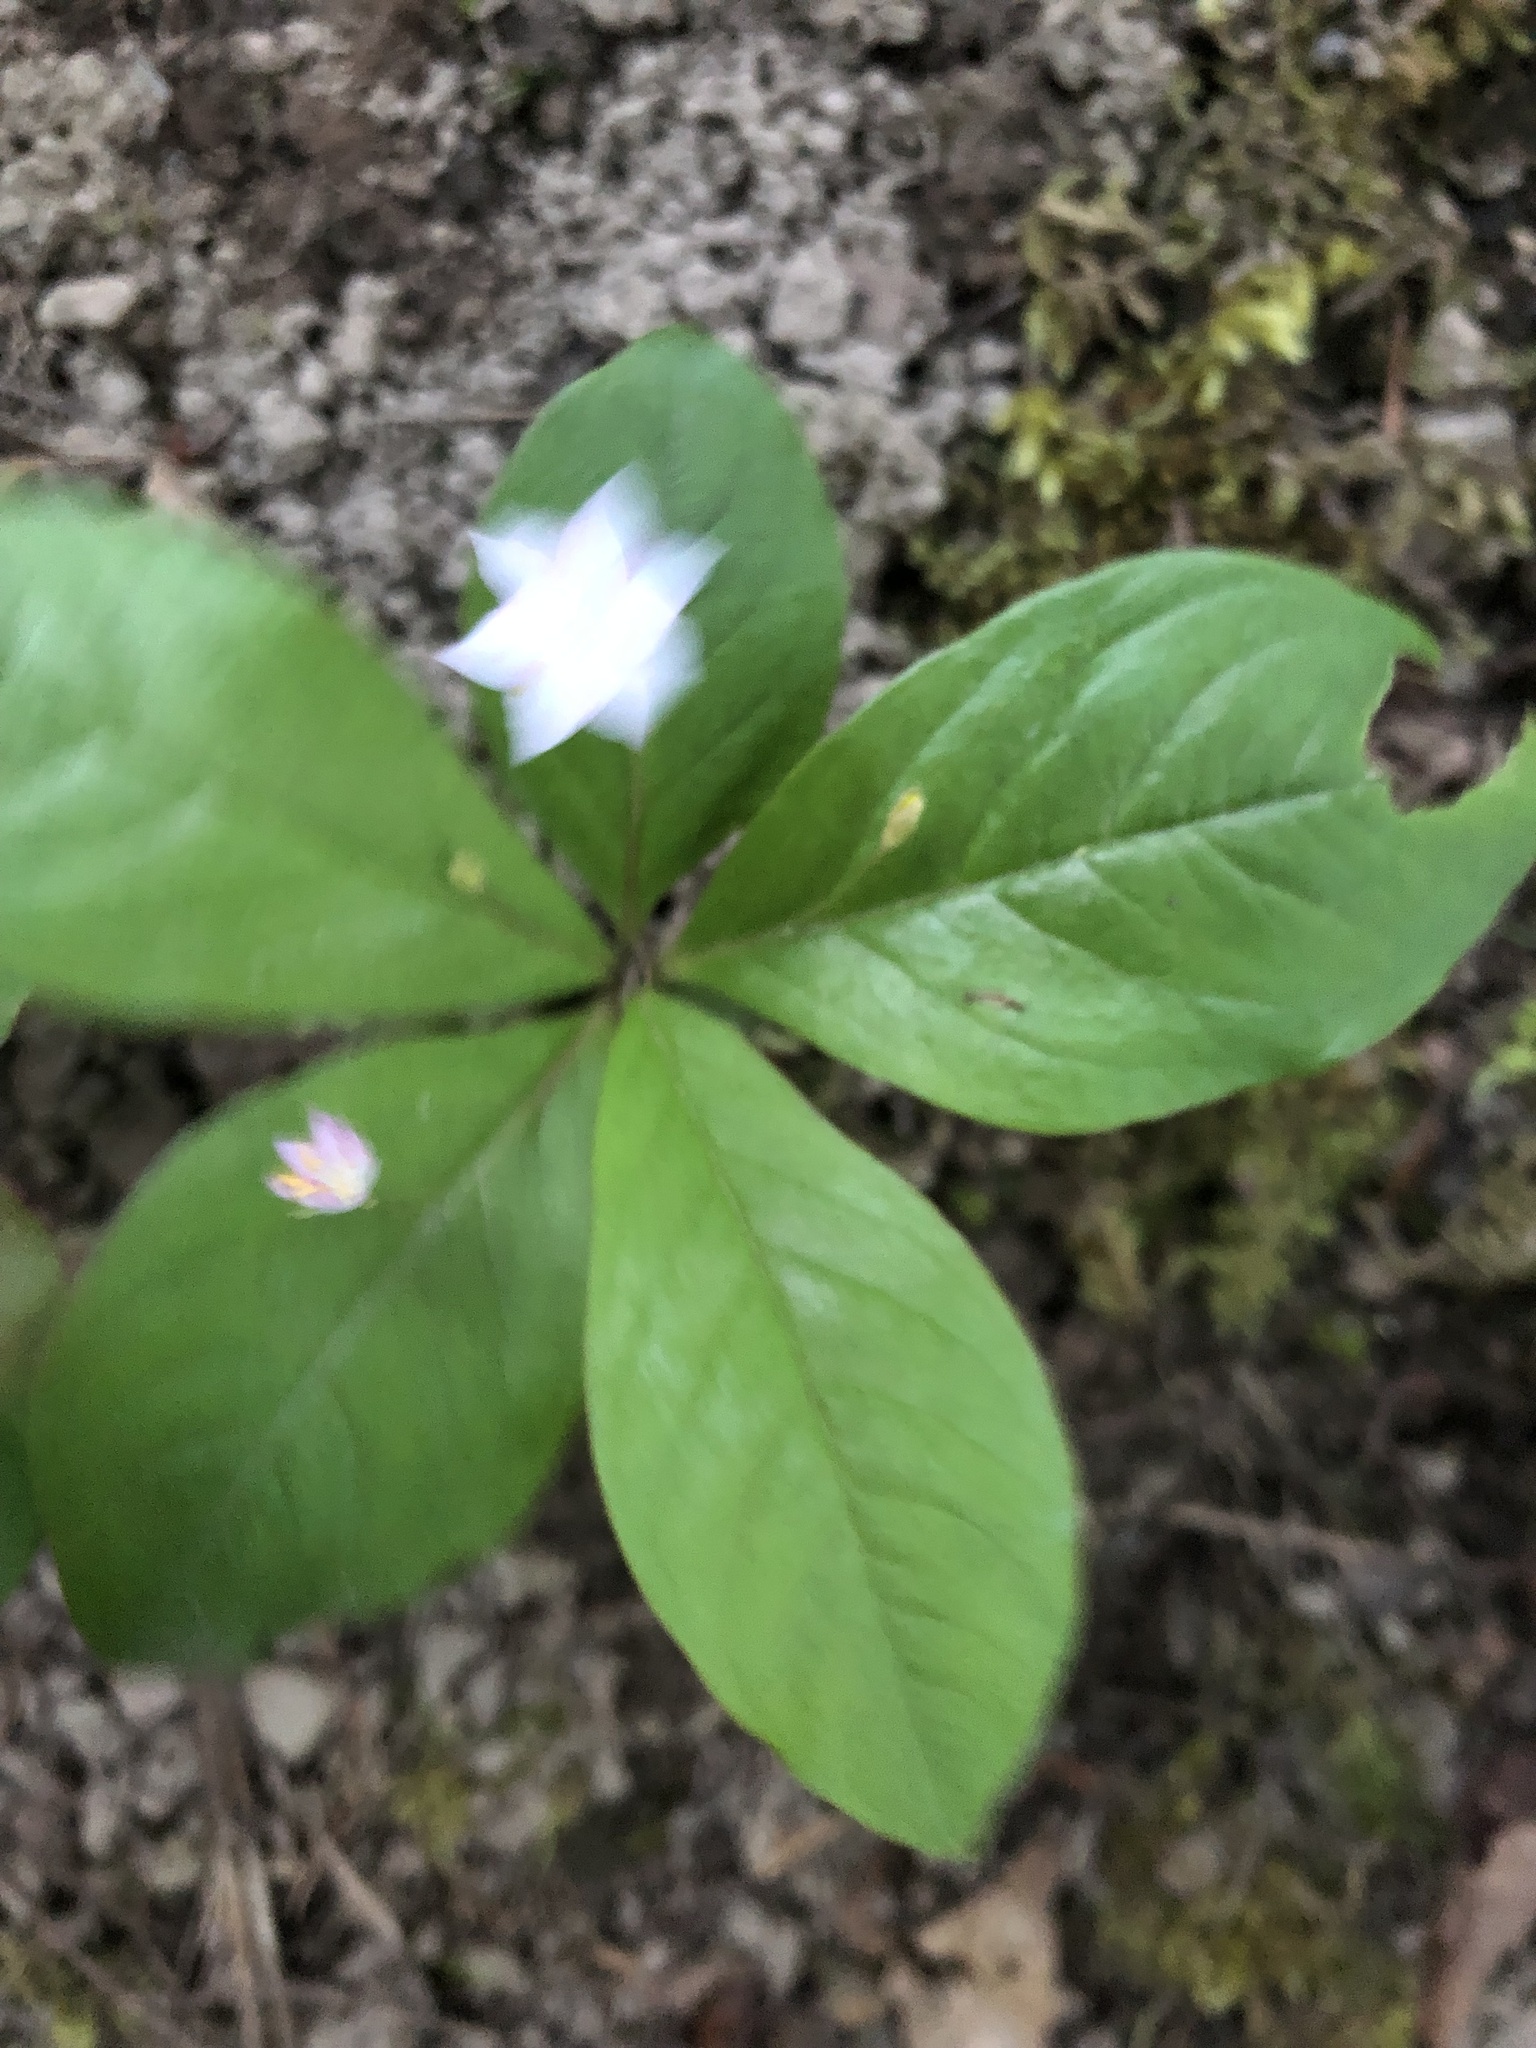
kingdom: Plantae
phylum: Tracheophyta
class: Magnoliopsida
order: Ericales
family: Primulaceae
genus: Lysimachia
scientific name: Lysimachia latifolia
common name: Pacific starflower
